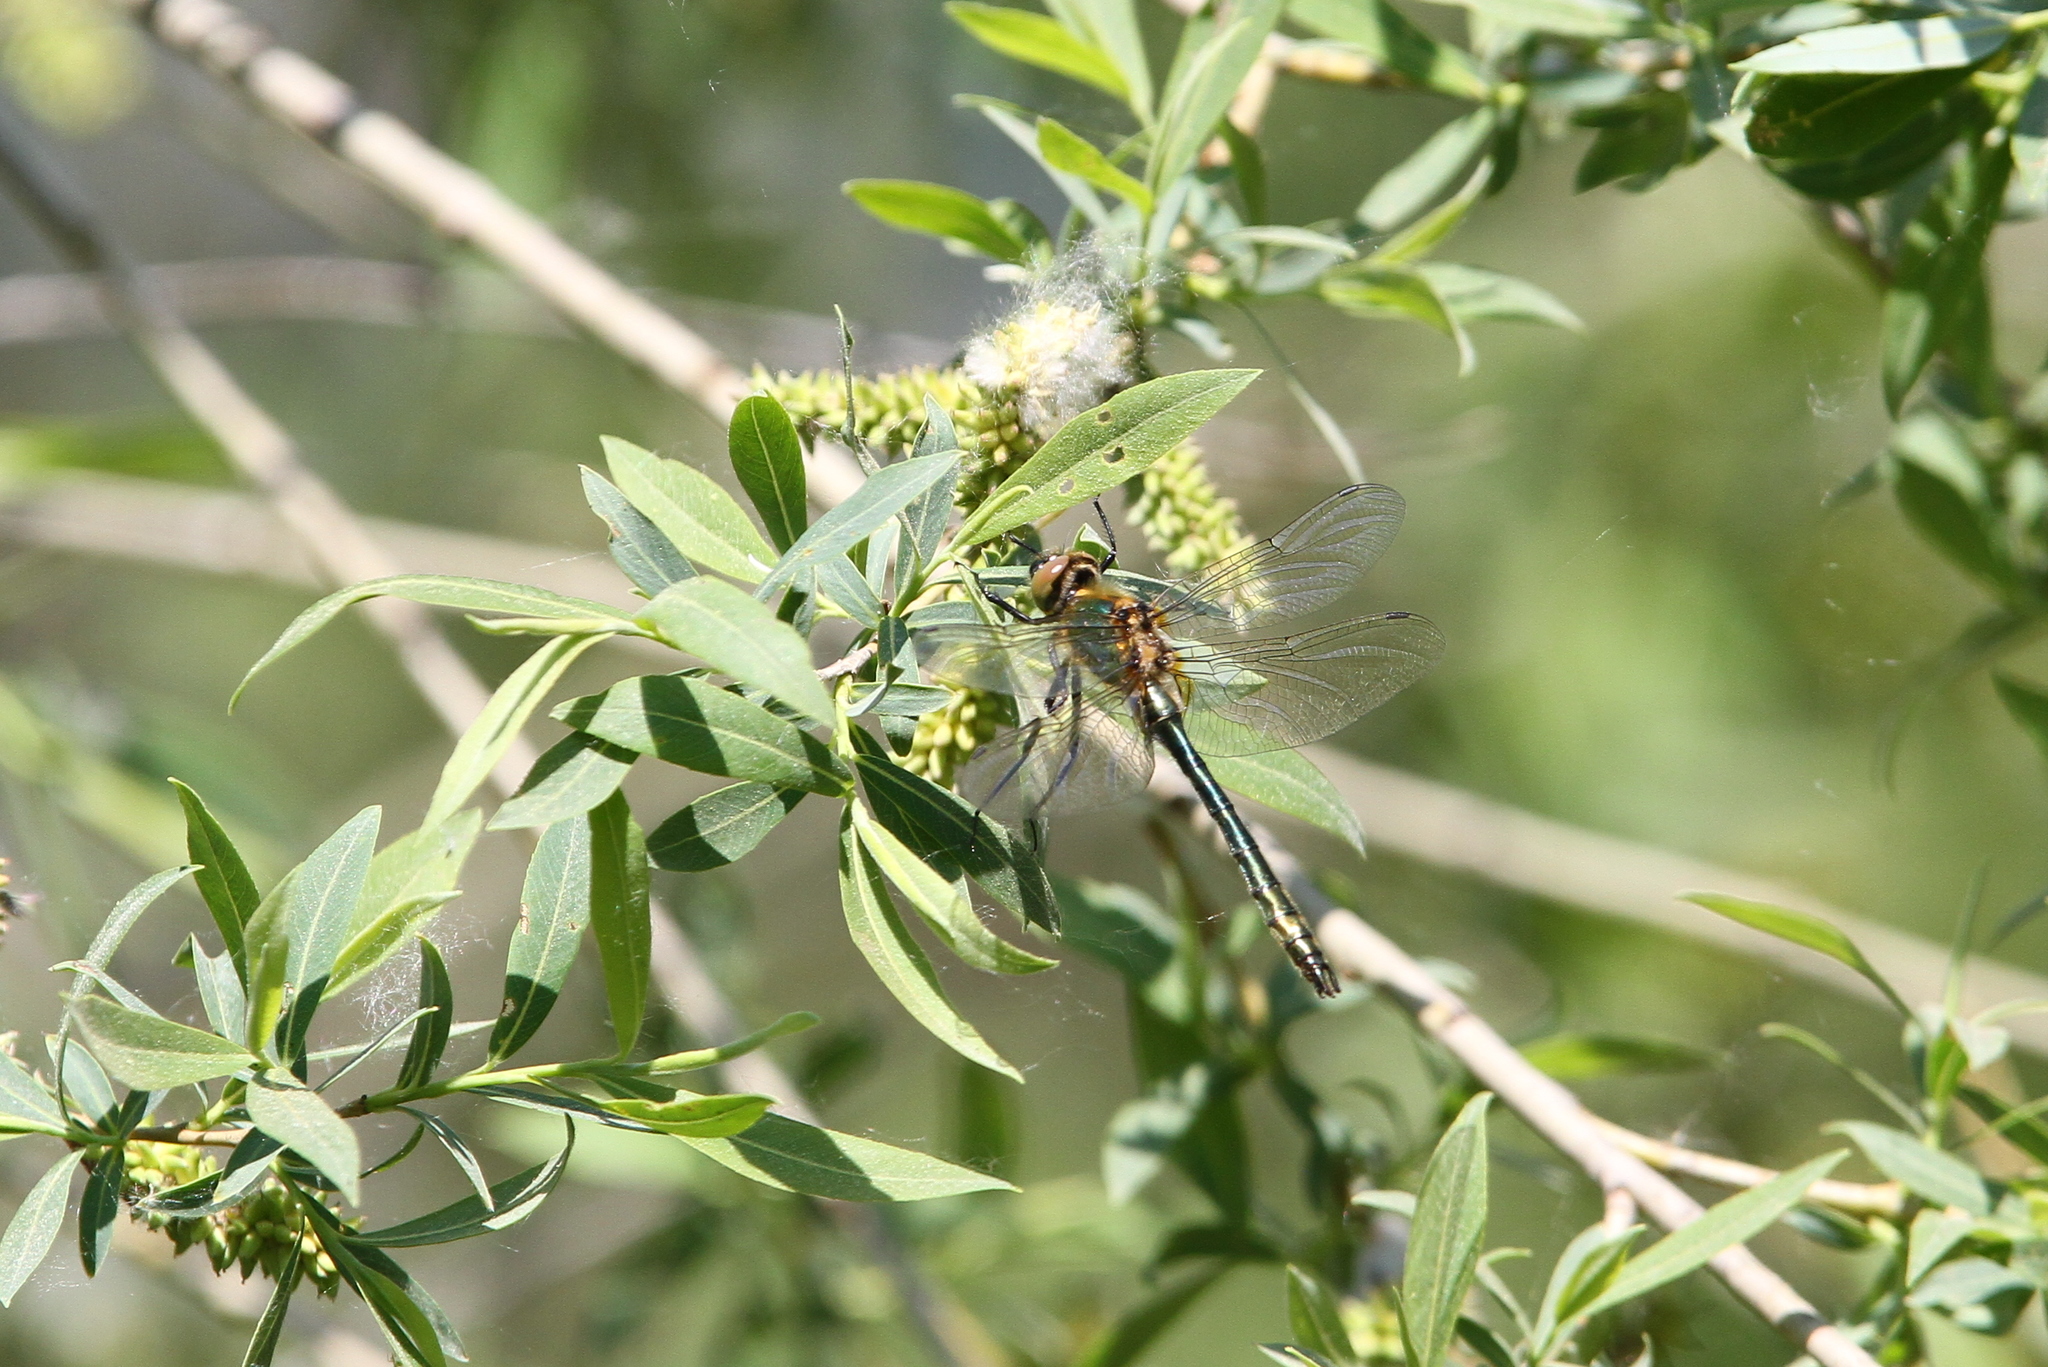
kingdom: Animalia
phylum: Arthropoda
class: Insecta
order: Odonata
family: Corduliidae
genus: Cordulia
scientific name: Cordulia aenea
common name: Downy emerald
